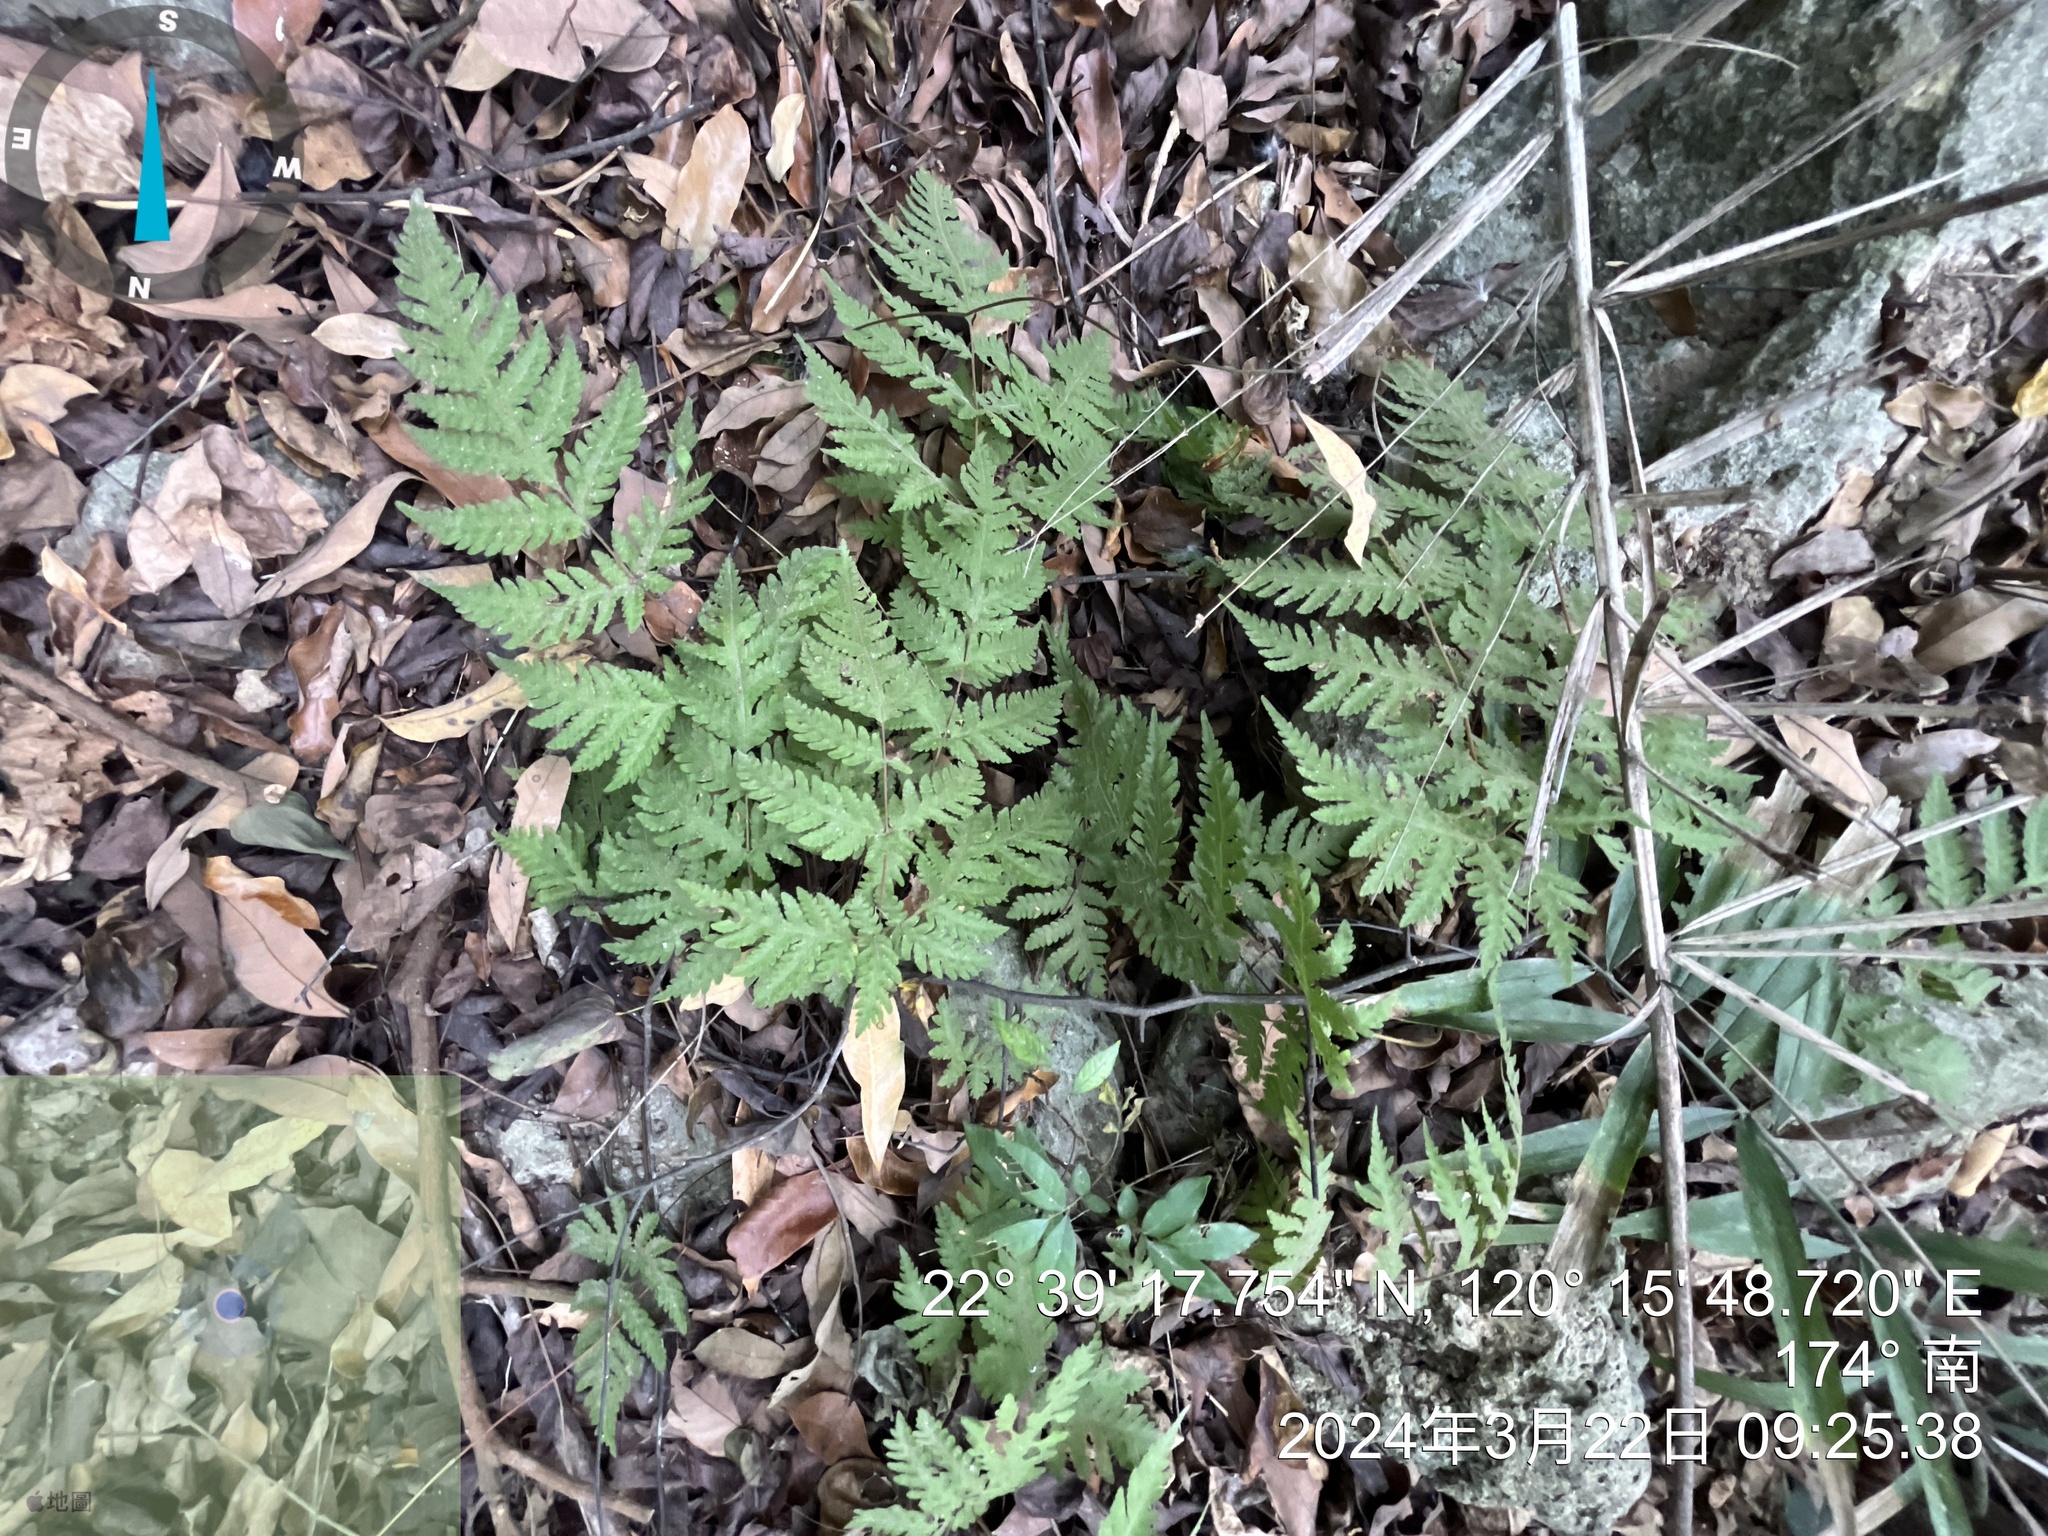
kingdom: Plantae
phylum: Tracheophyta
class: Polypodiopsida
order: Polypodiales
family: Tectariaceae
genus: Tectaria
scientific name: Tectaria membranacea
